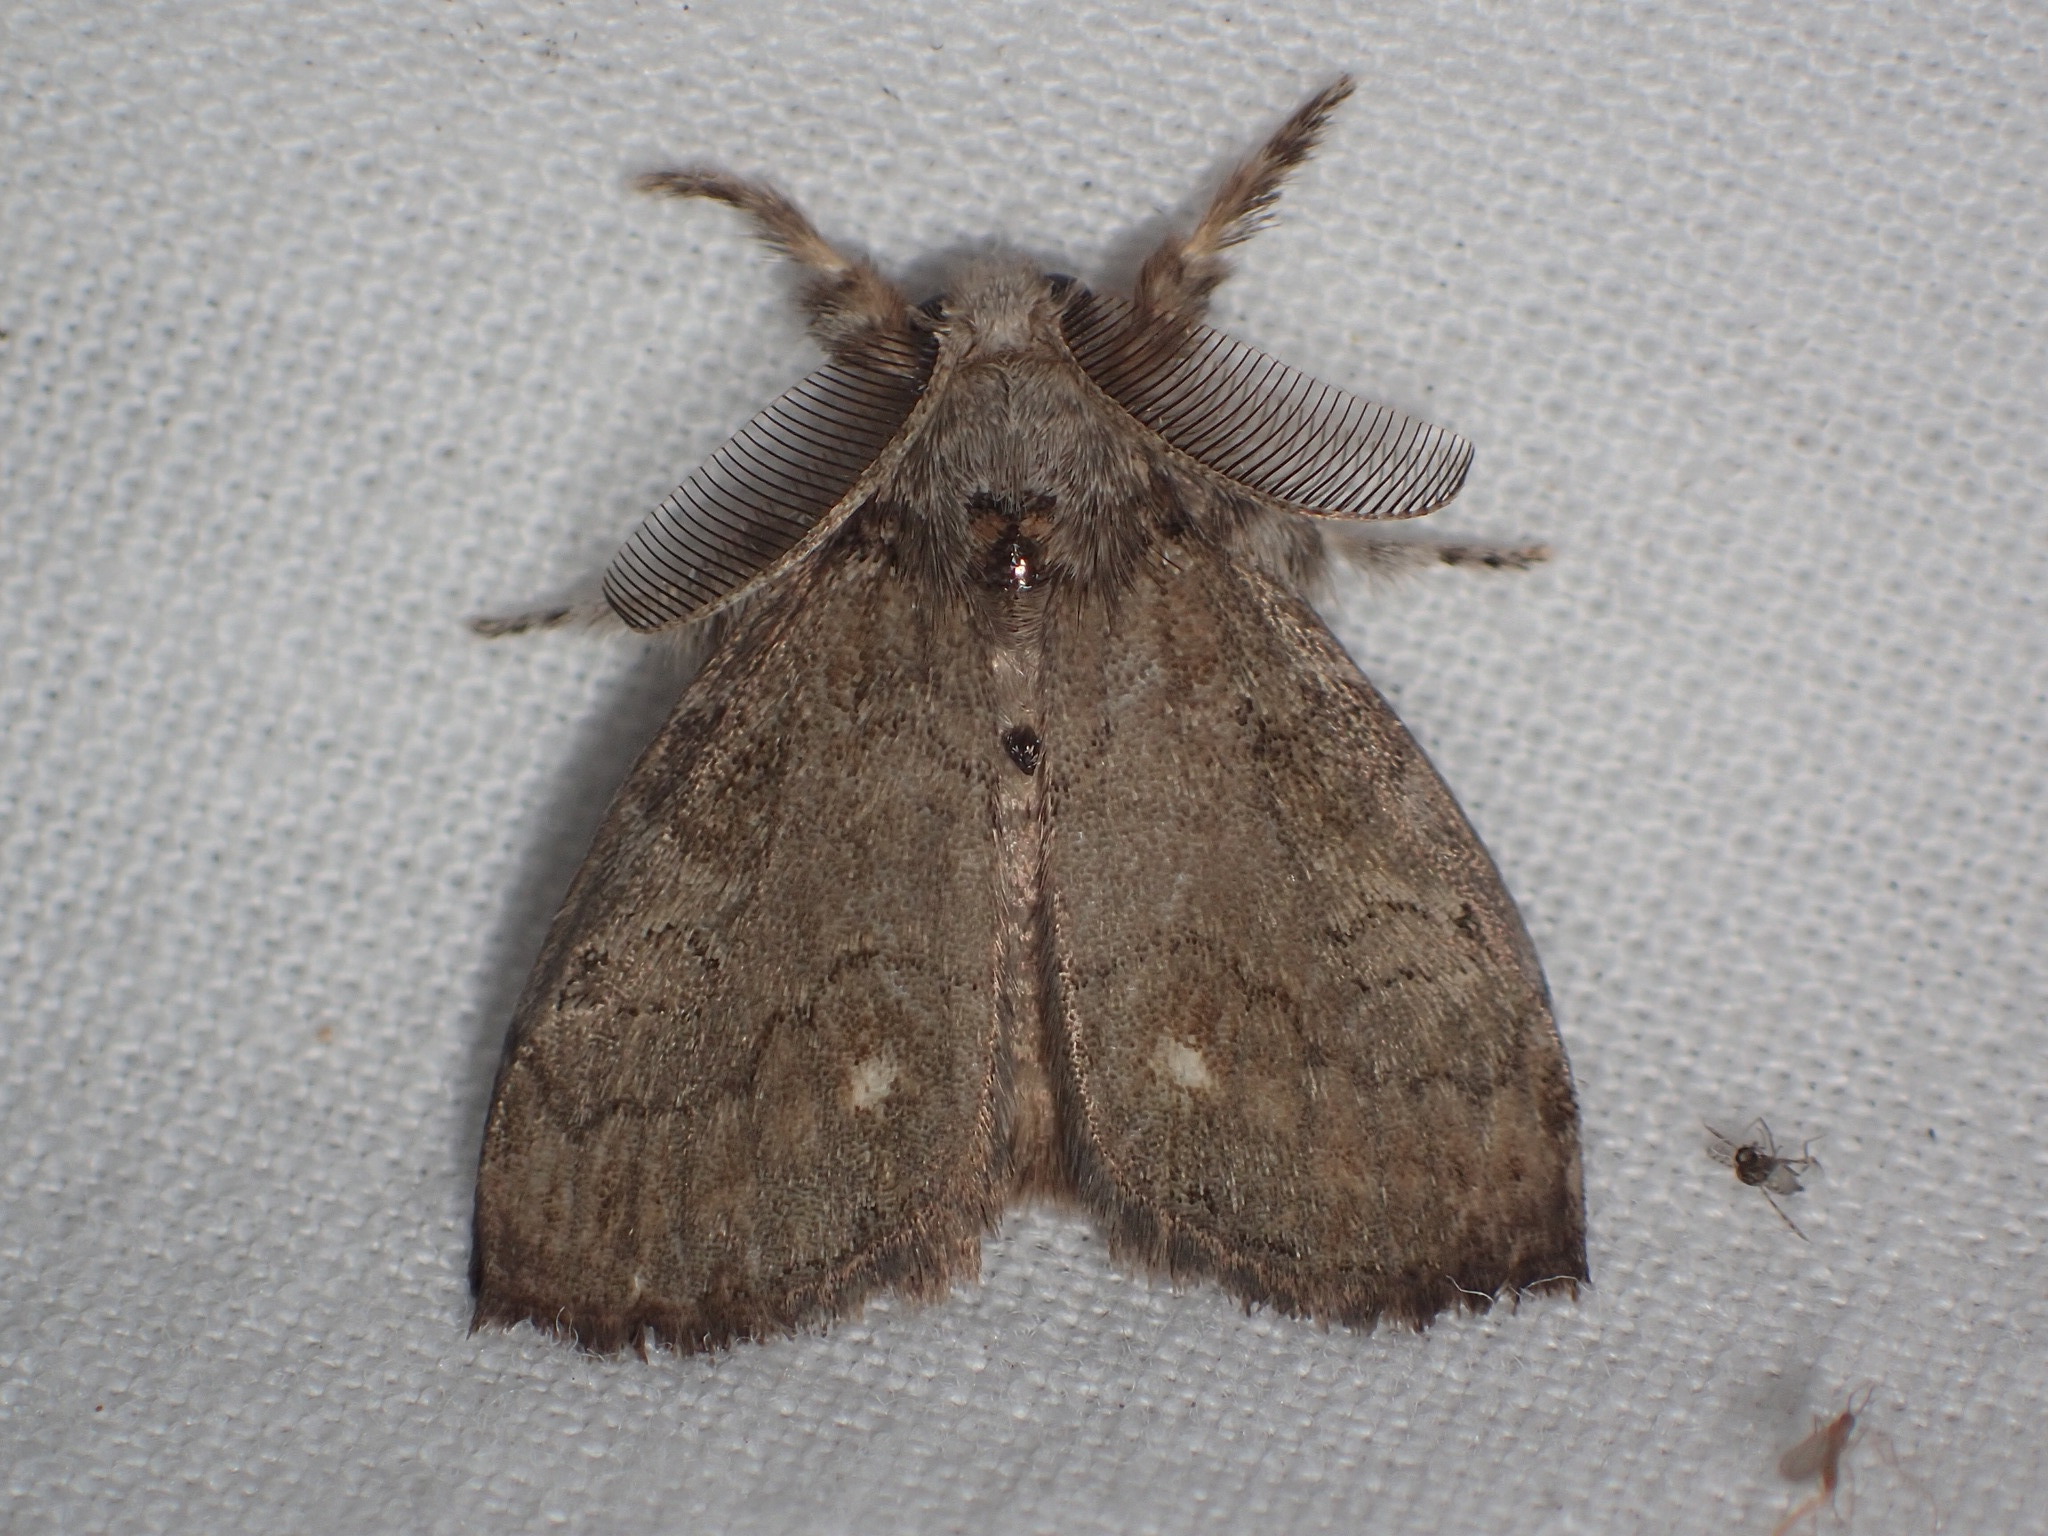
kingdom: Animalia
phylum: Arthropoda
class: Insecta
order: Lepidoptera
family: Erebidae
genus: Orgyia
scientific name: Orgyia leucostigma
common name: White-marked tussock moth
